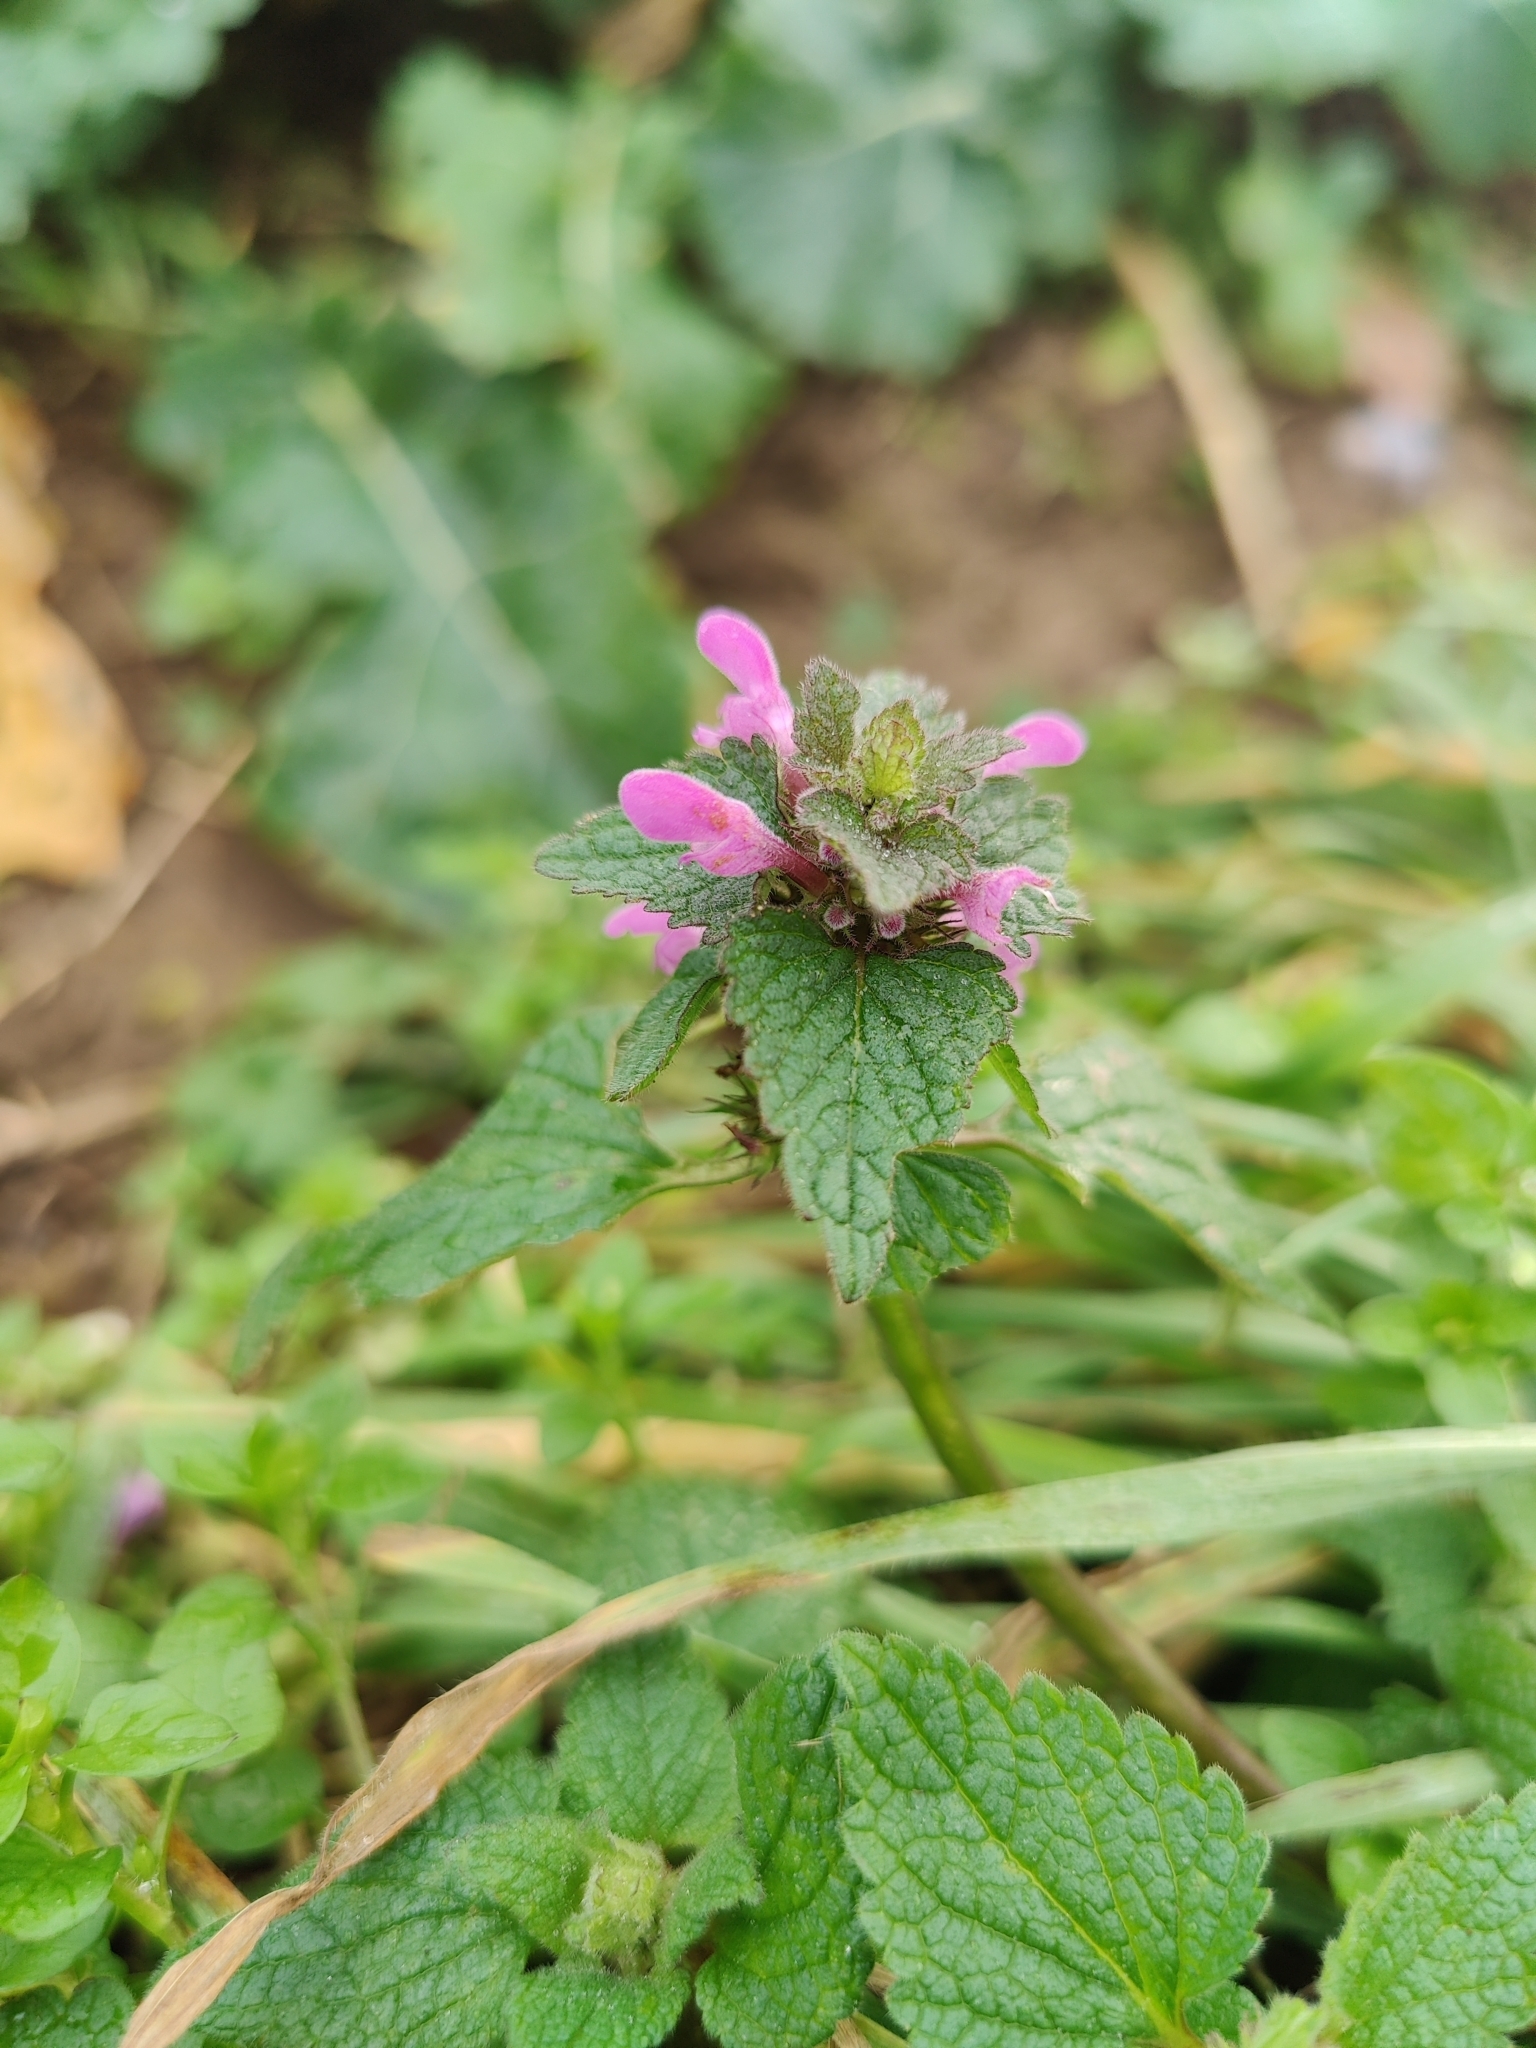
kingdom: Plantae
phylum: Tracheophyta
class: Magnoliopsida
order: Lamiales
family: Lamiaceae
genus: Lamium
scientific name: Lamium purpureum
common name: Red dead-nettle
